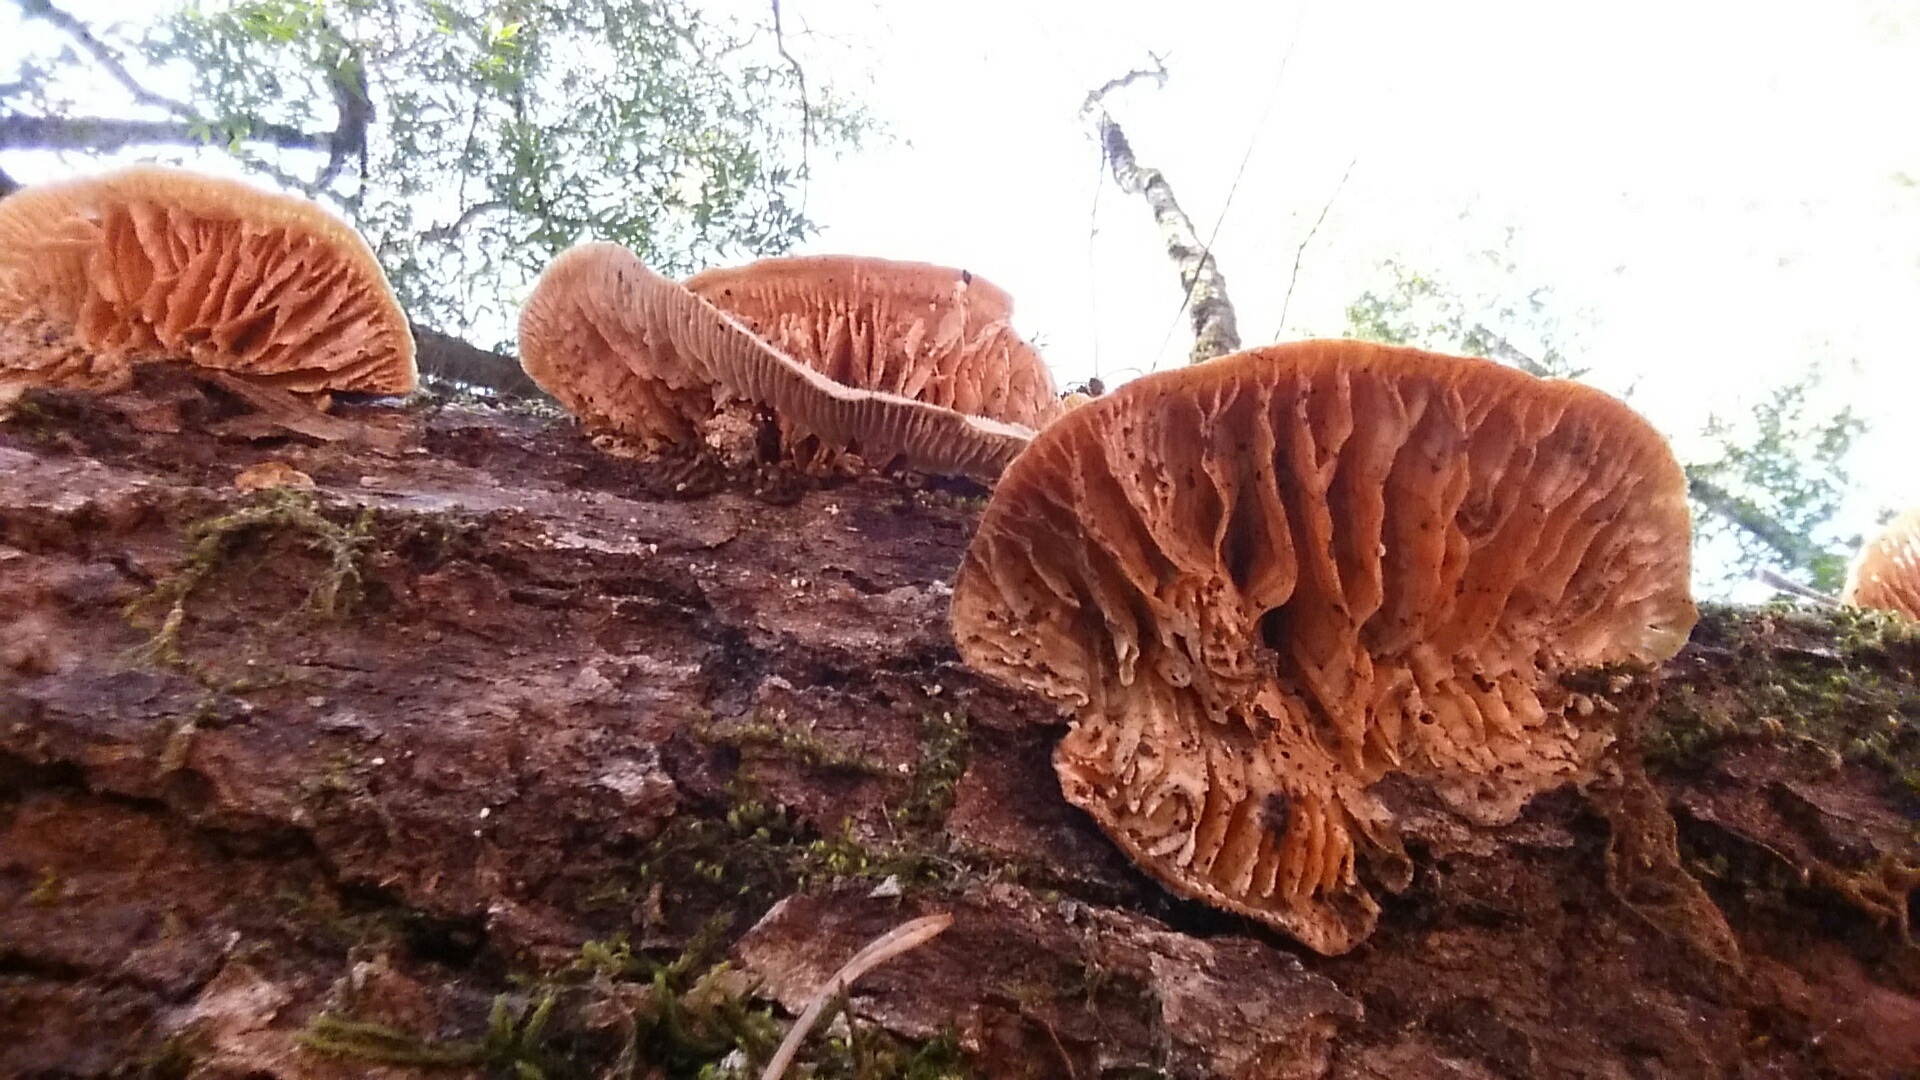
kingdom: Fungi
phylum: Basidiomycota
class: Agaricomycetes
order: Polyporales
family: Polyporaceae
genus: Lenzites
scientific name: Lenzites betulinus
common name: Birch mazegill
